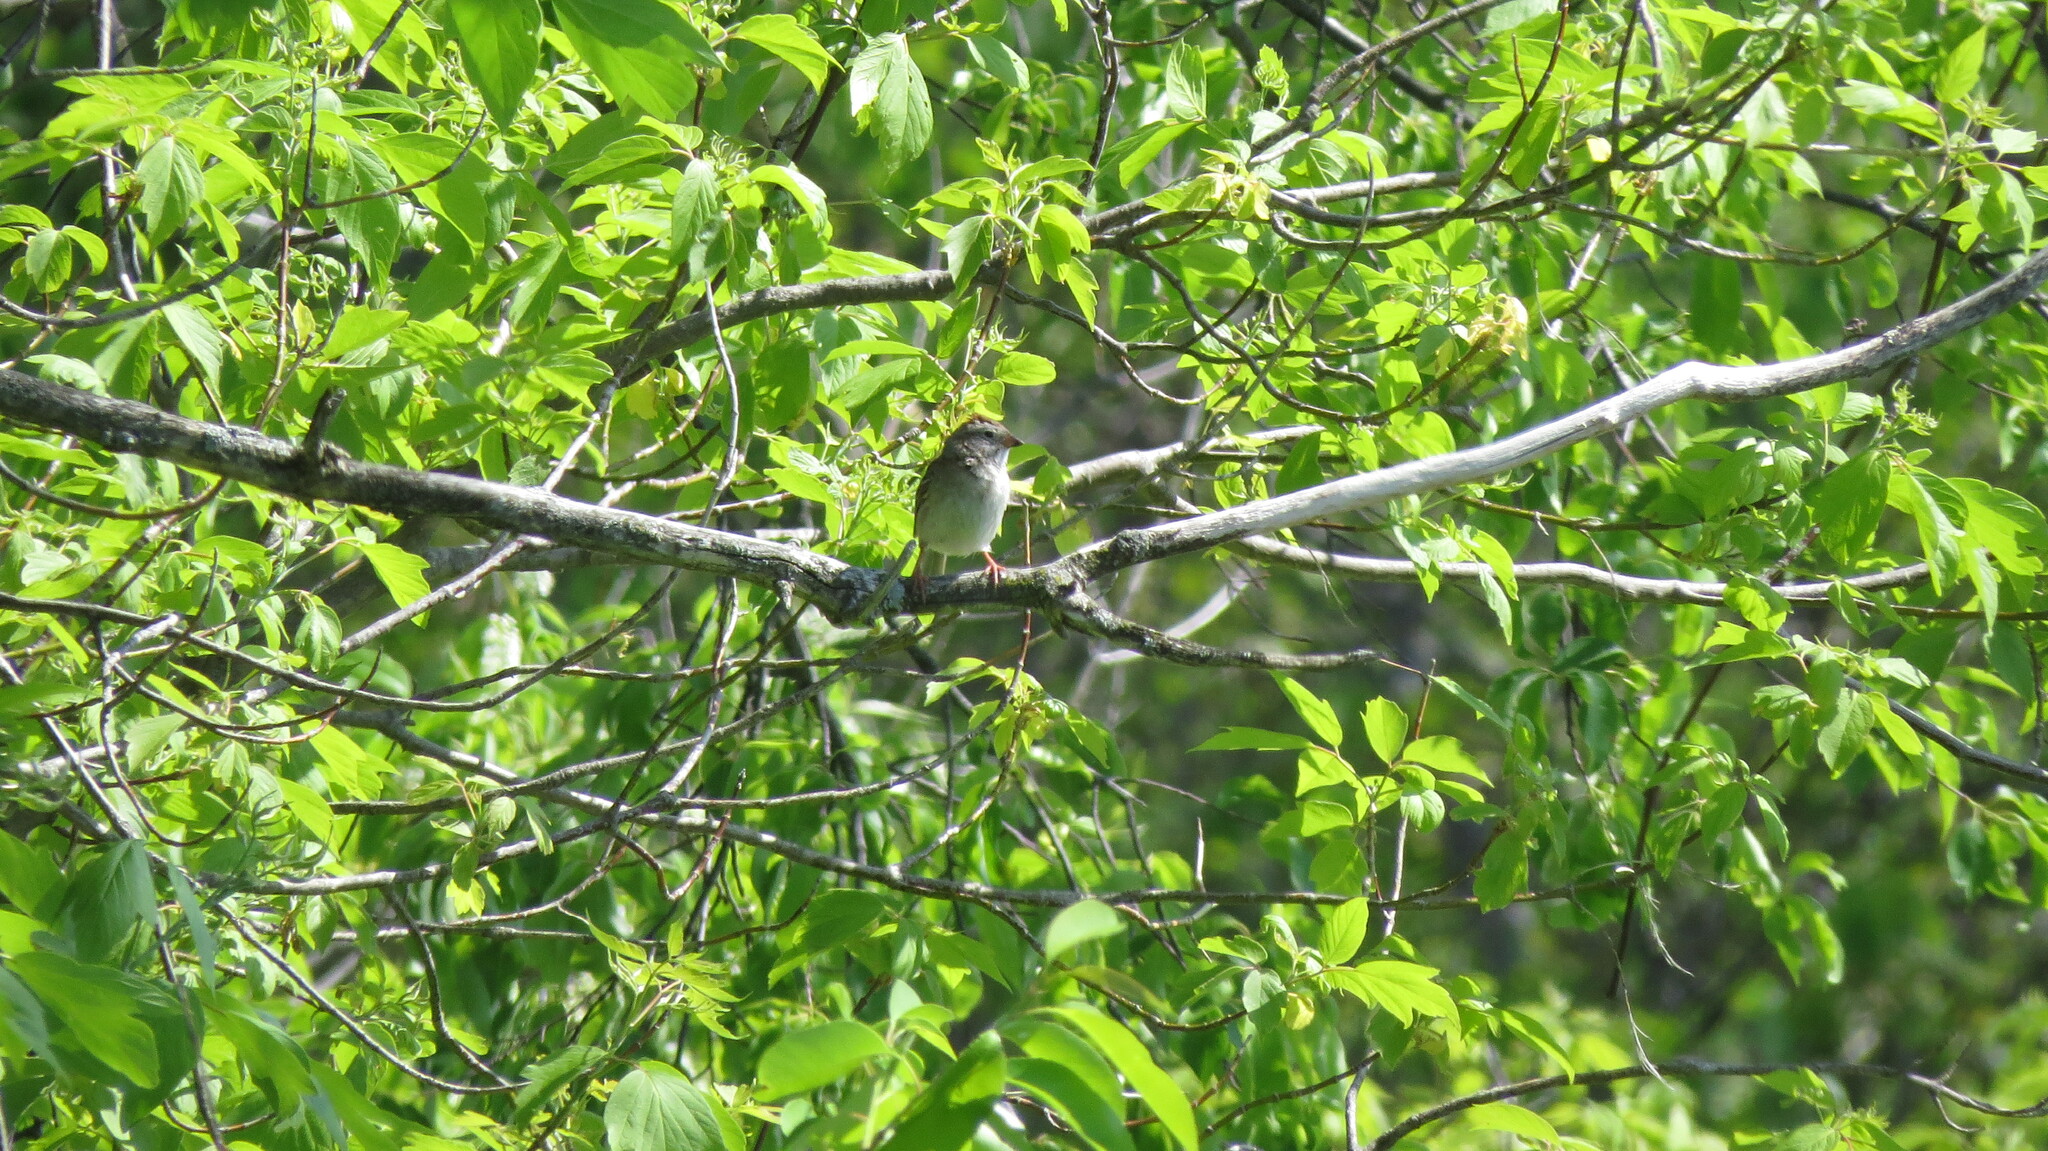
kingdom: Animalia
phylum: Chordata
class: Aves
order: Passeriformes
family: Passerellidae
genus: Spizella
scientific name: Spizella pusilla
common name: Field sparrow
